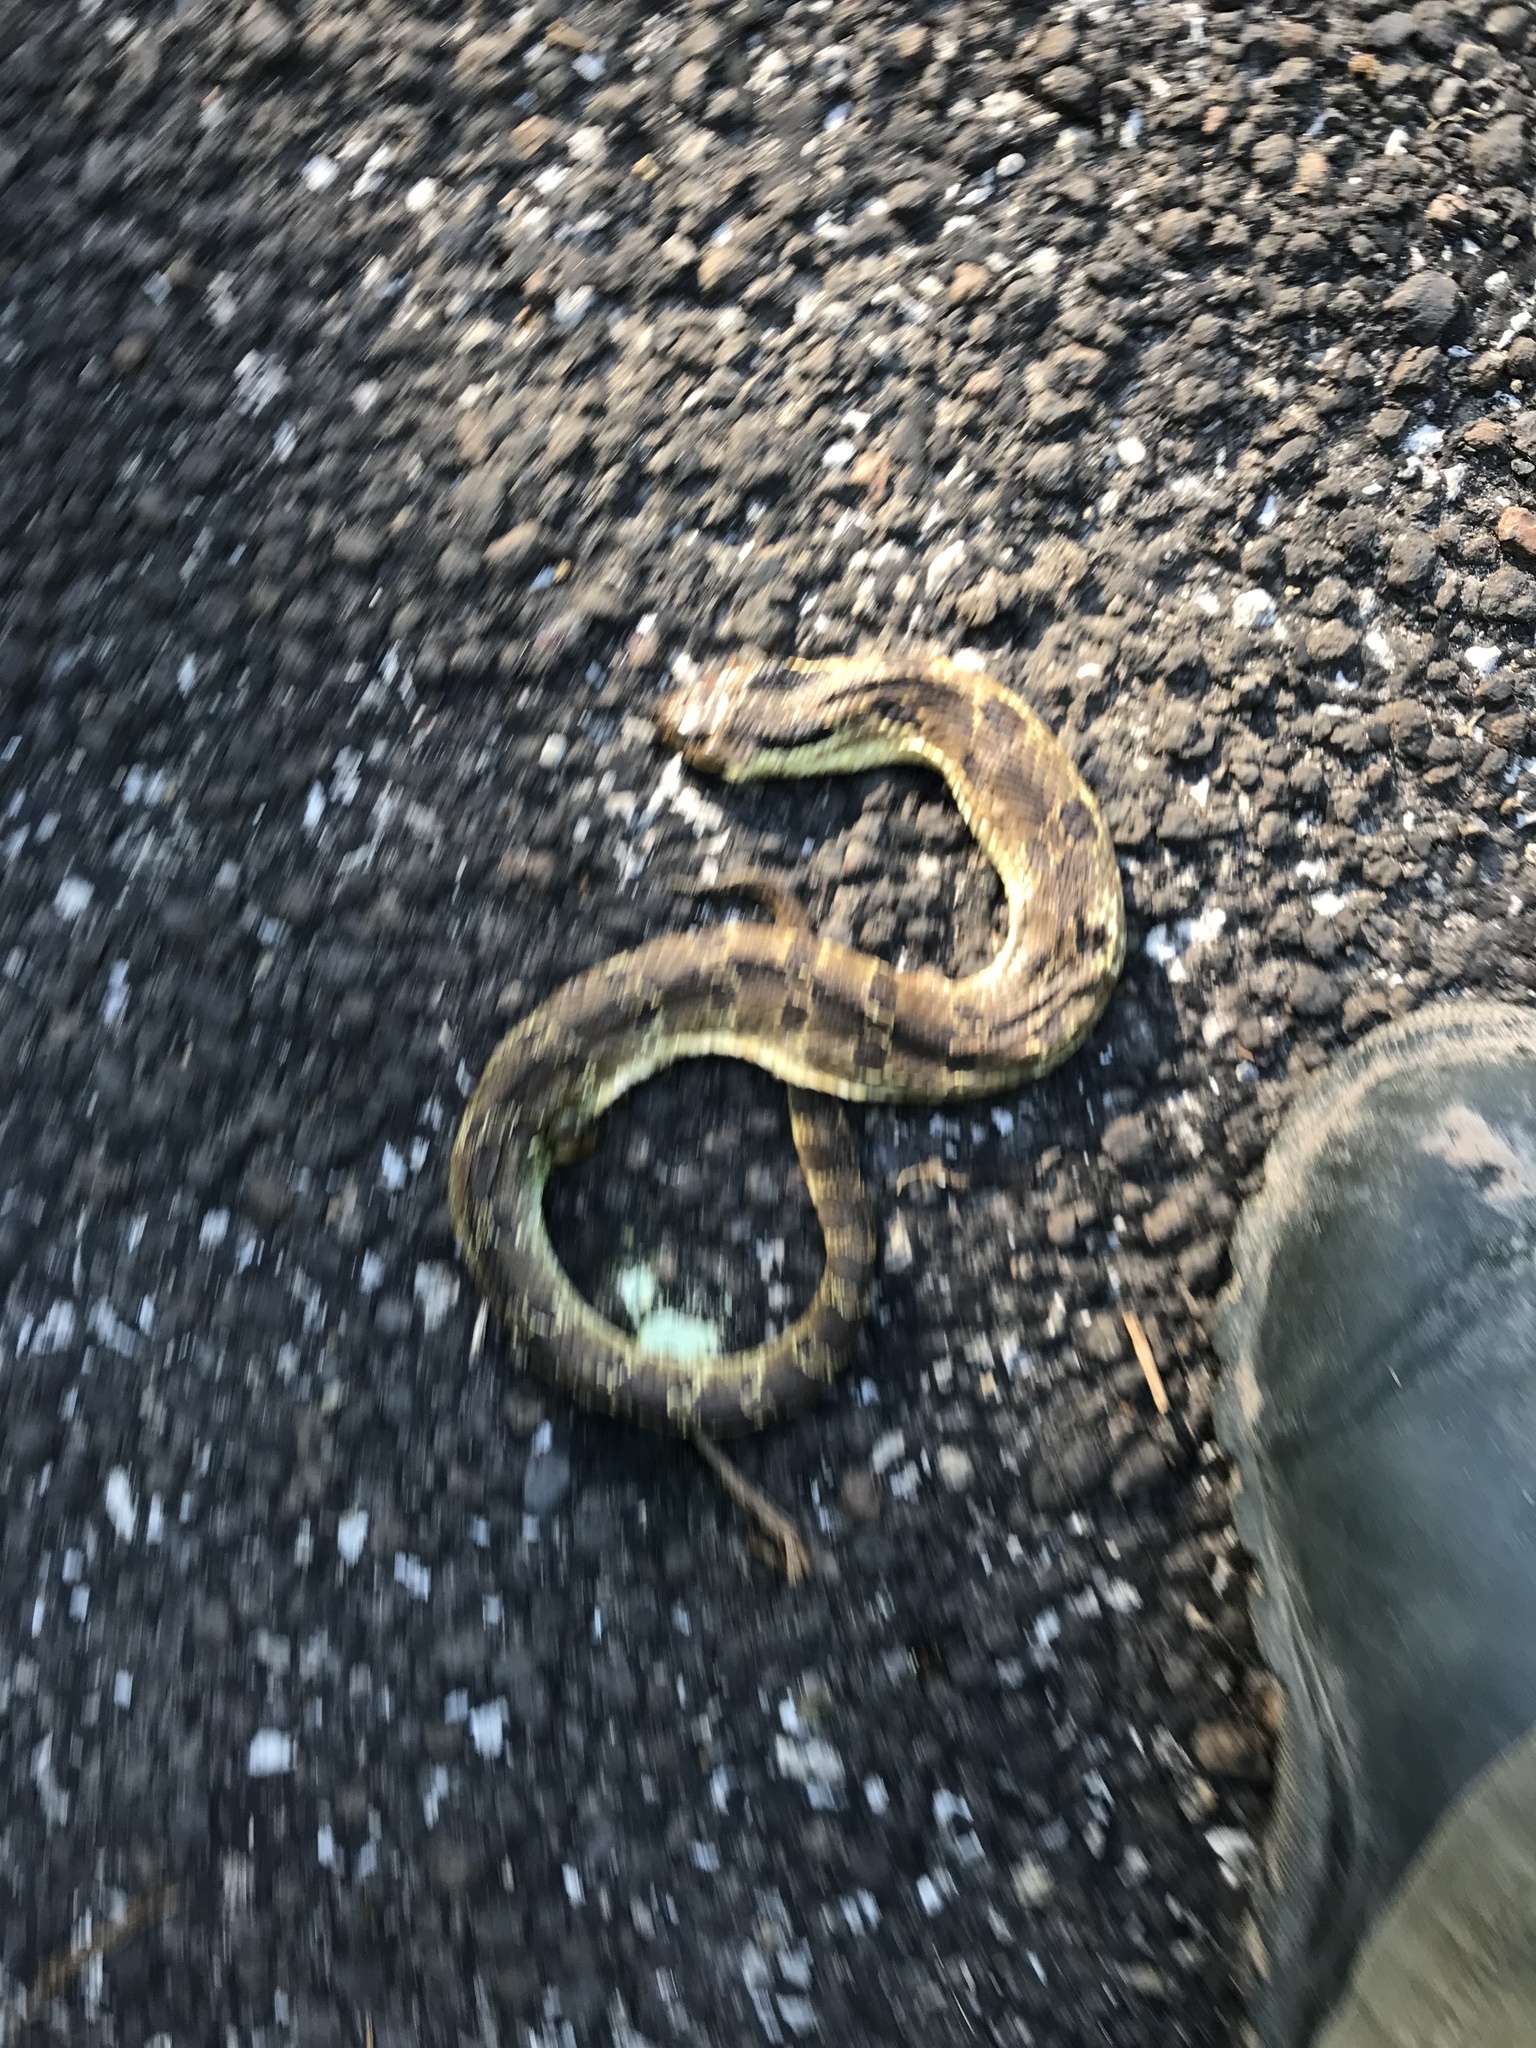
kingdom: Animalia
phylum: Chordata
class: Squamata
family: Colubridae
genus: Heterodon
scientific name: Heterodon platirhinos
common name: Eastern hognose snake
